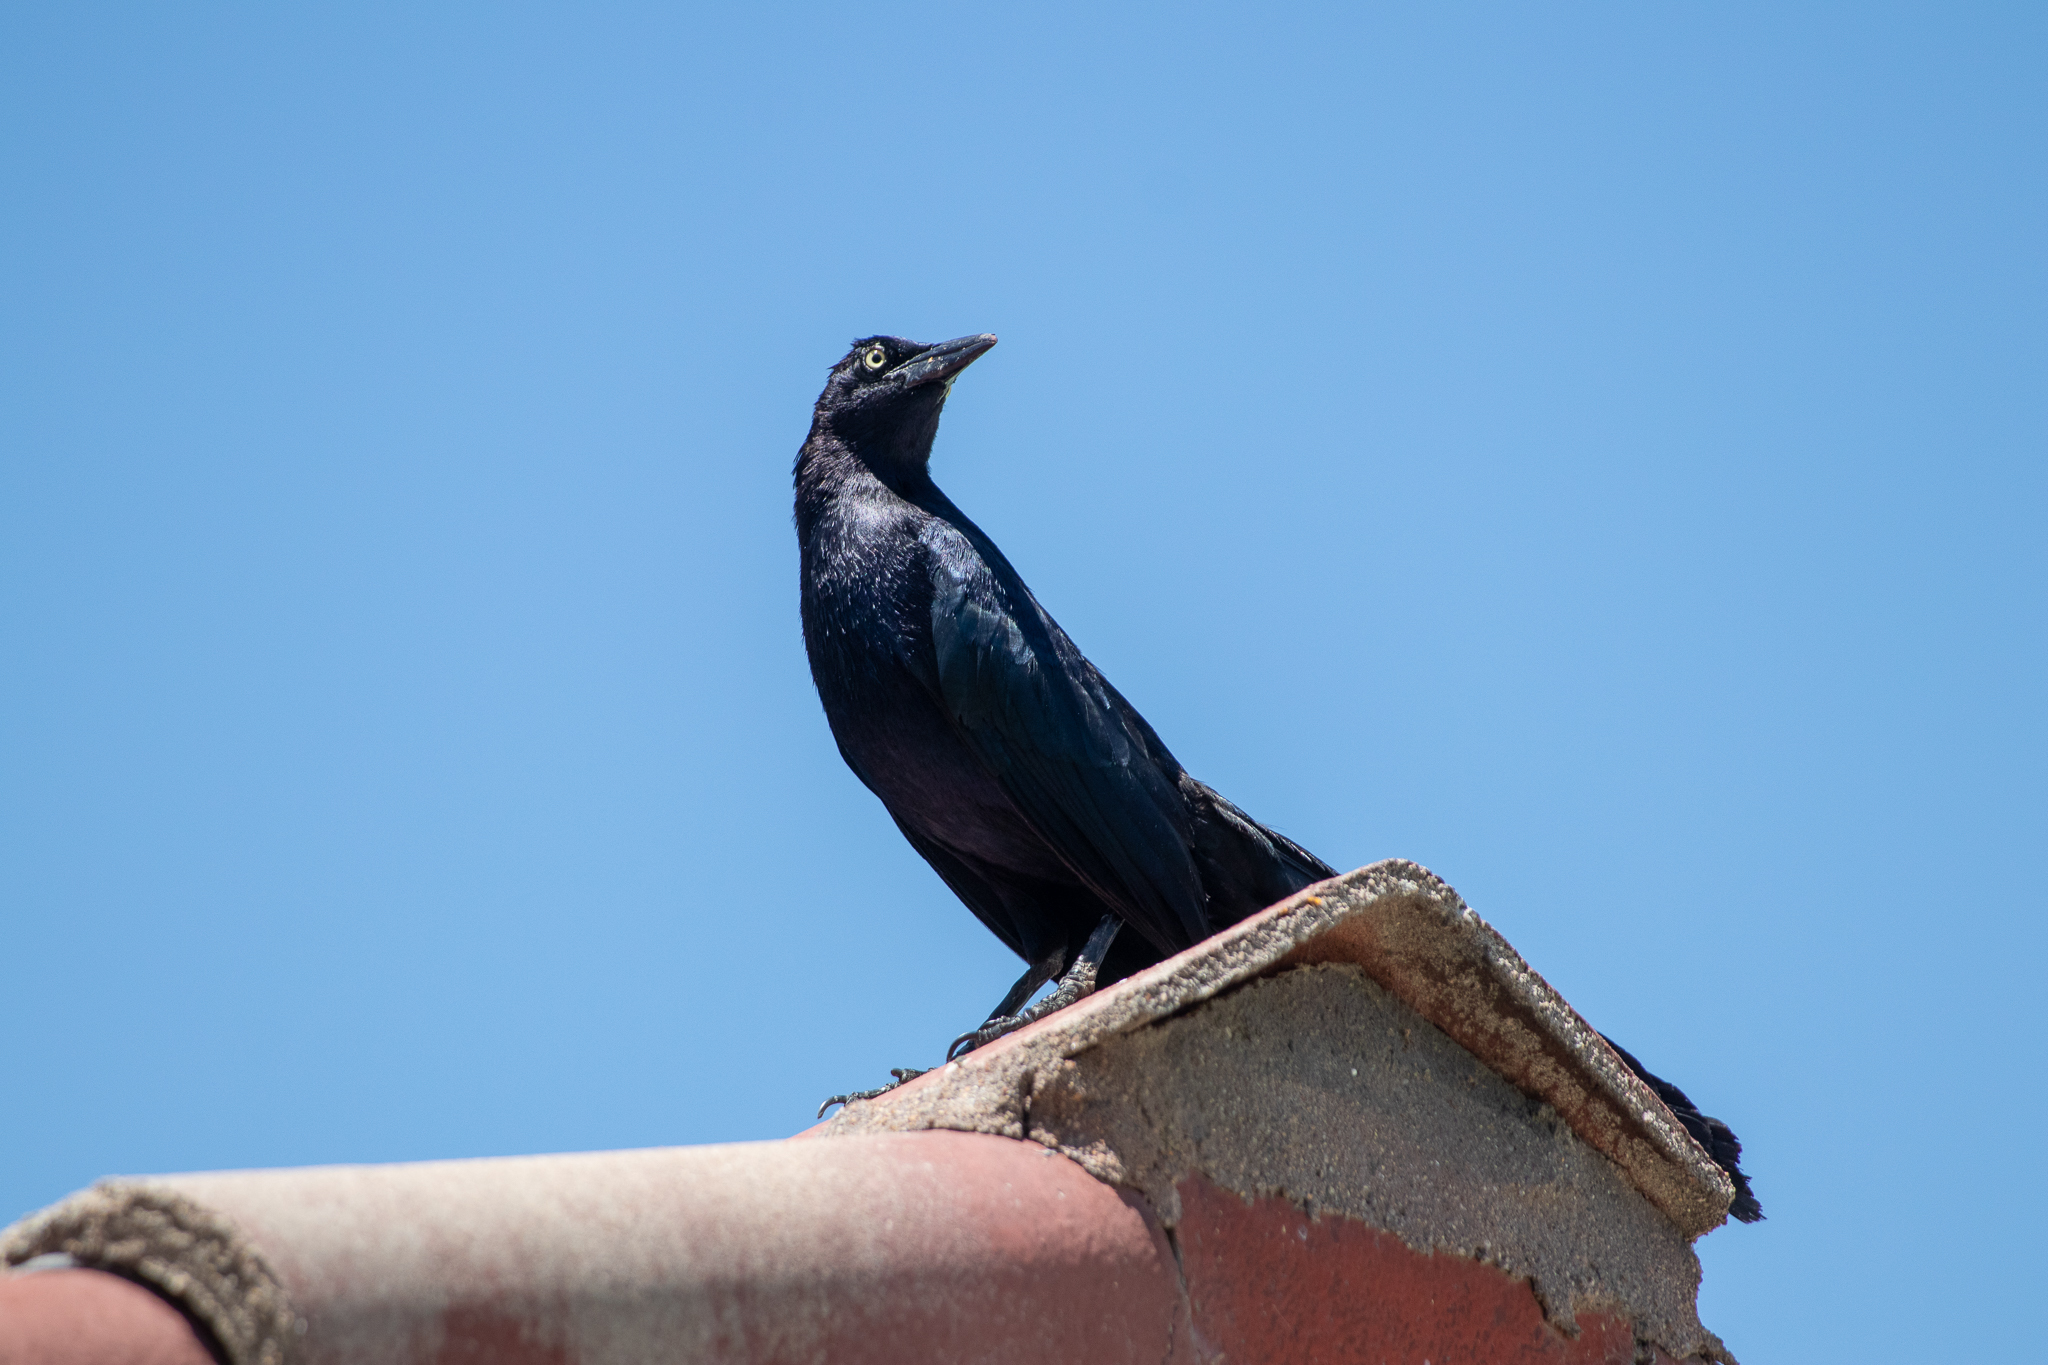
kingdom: Animalia
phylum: Chordata
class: Aves
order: Passeriformes
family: Icteridae
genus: Quiscalus
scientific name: Quiscalus mexicanus
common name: Great-tailed grackle
